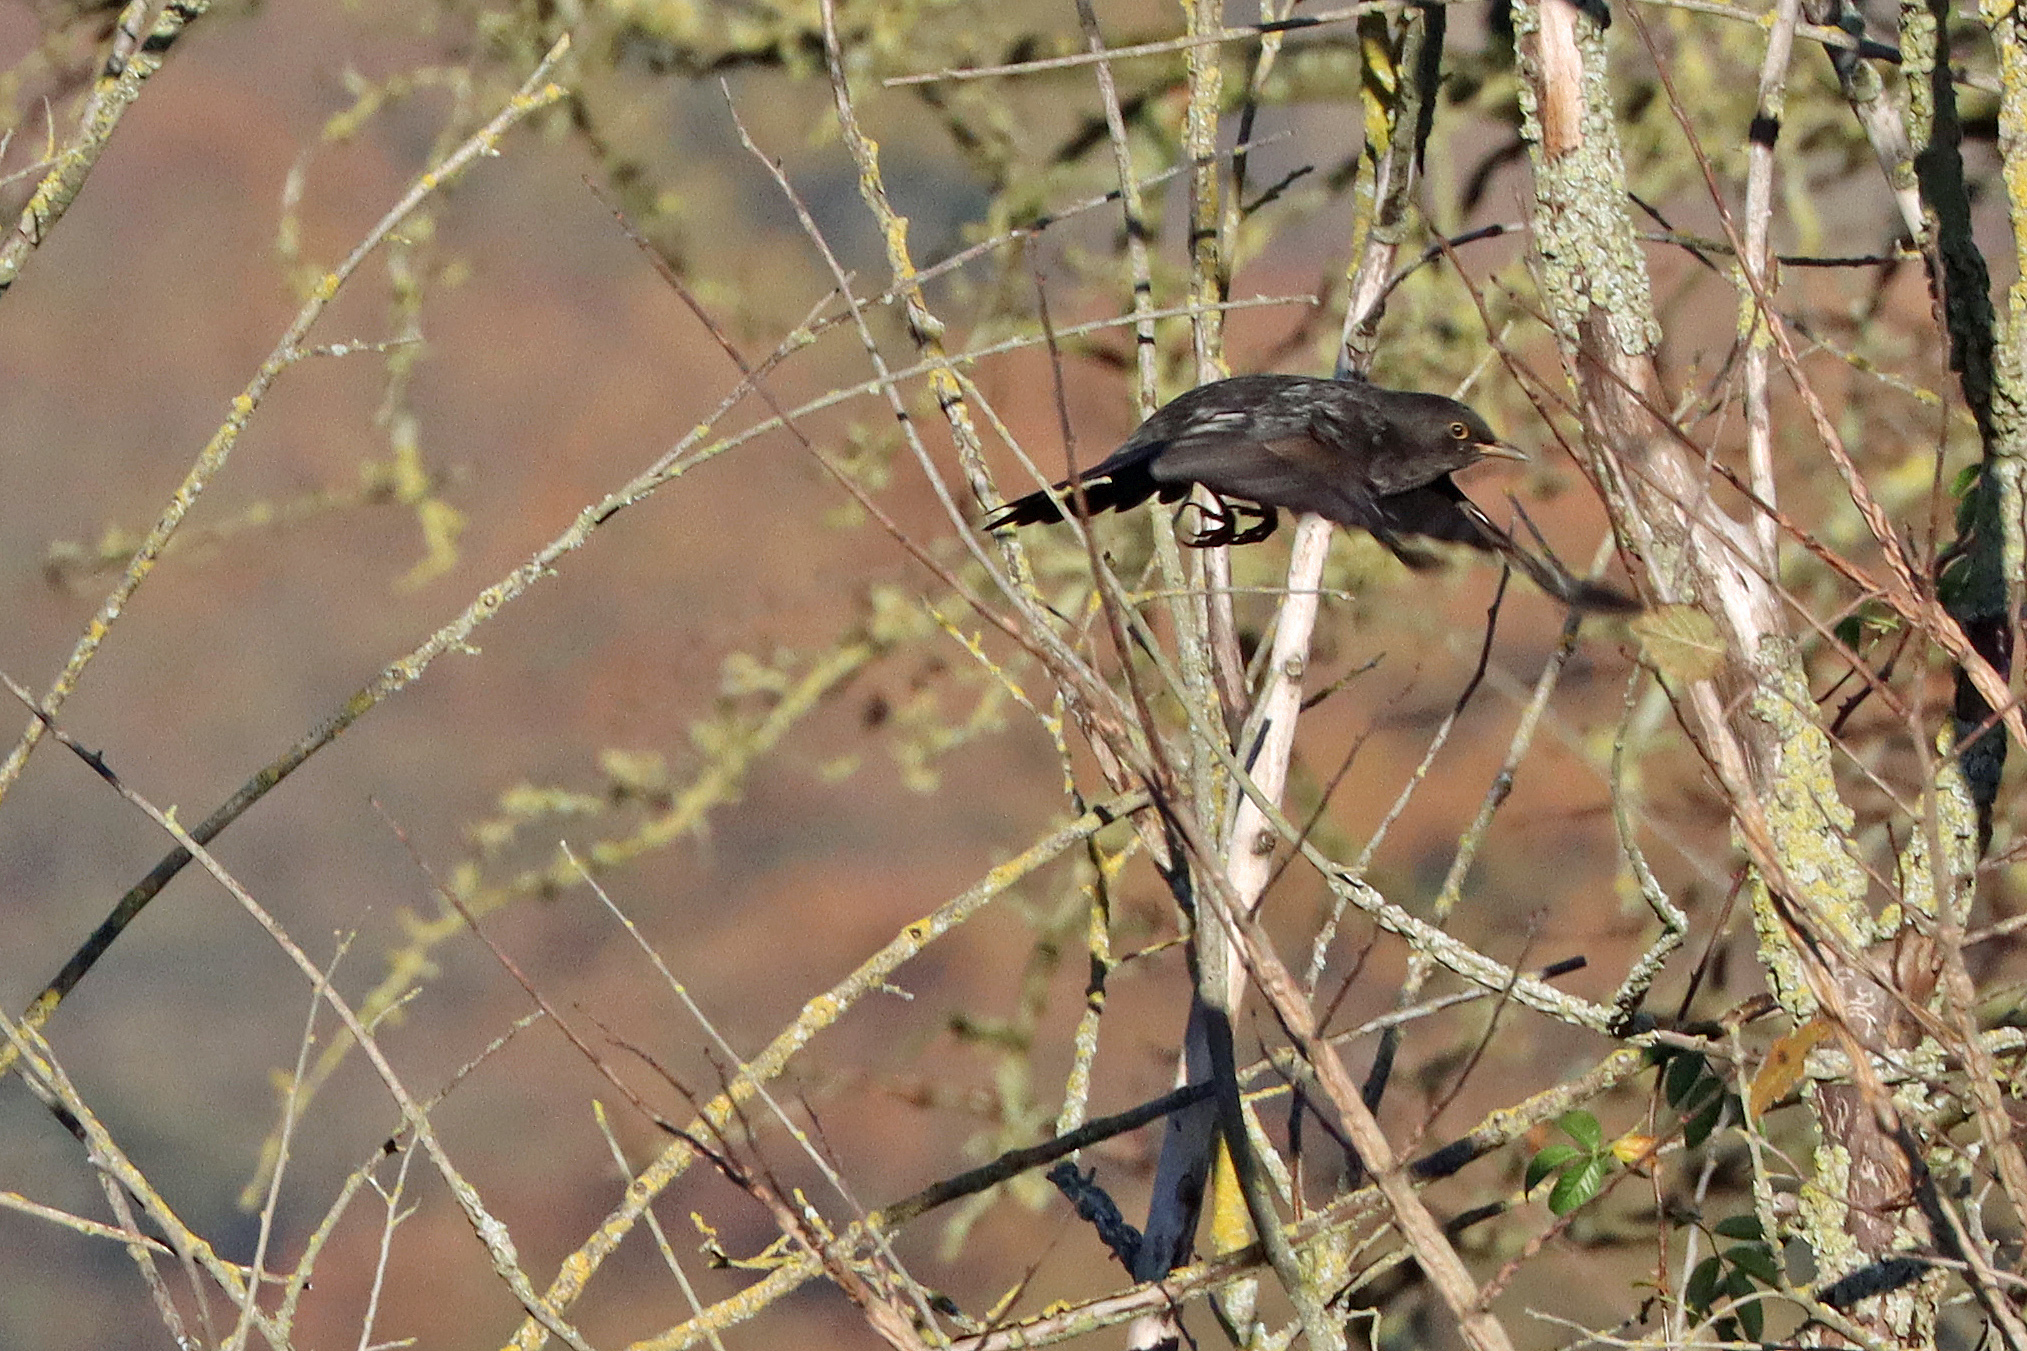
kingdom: Animalia
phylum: Chordata
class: Aves
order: Passeriformes
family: Turdidae
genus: Turdus
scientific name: Turdus merula
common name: Common blackbird
